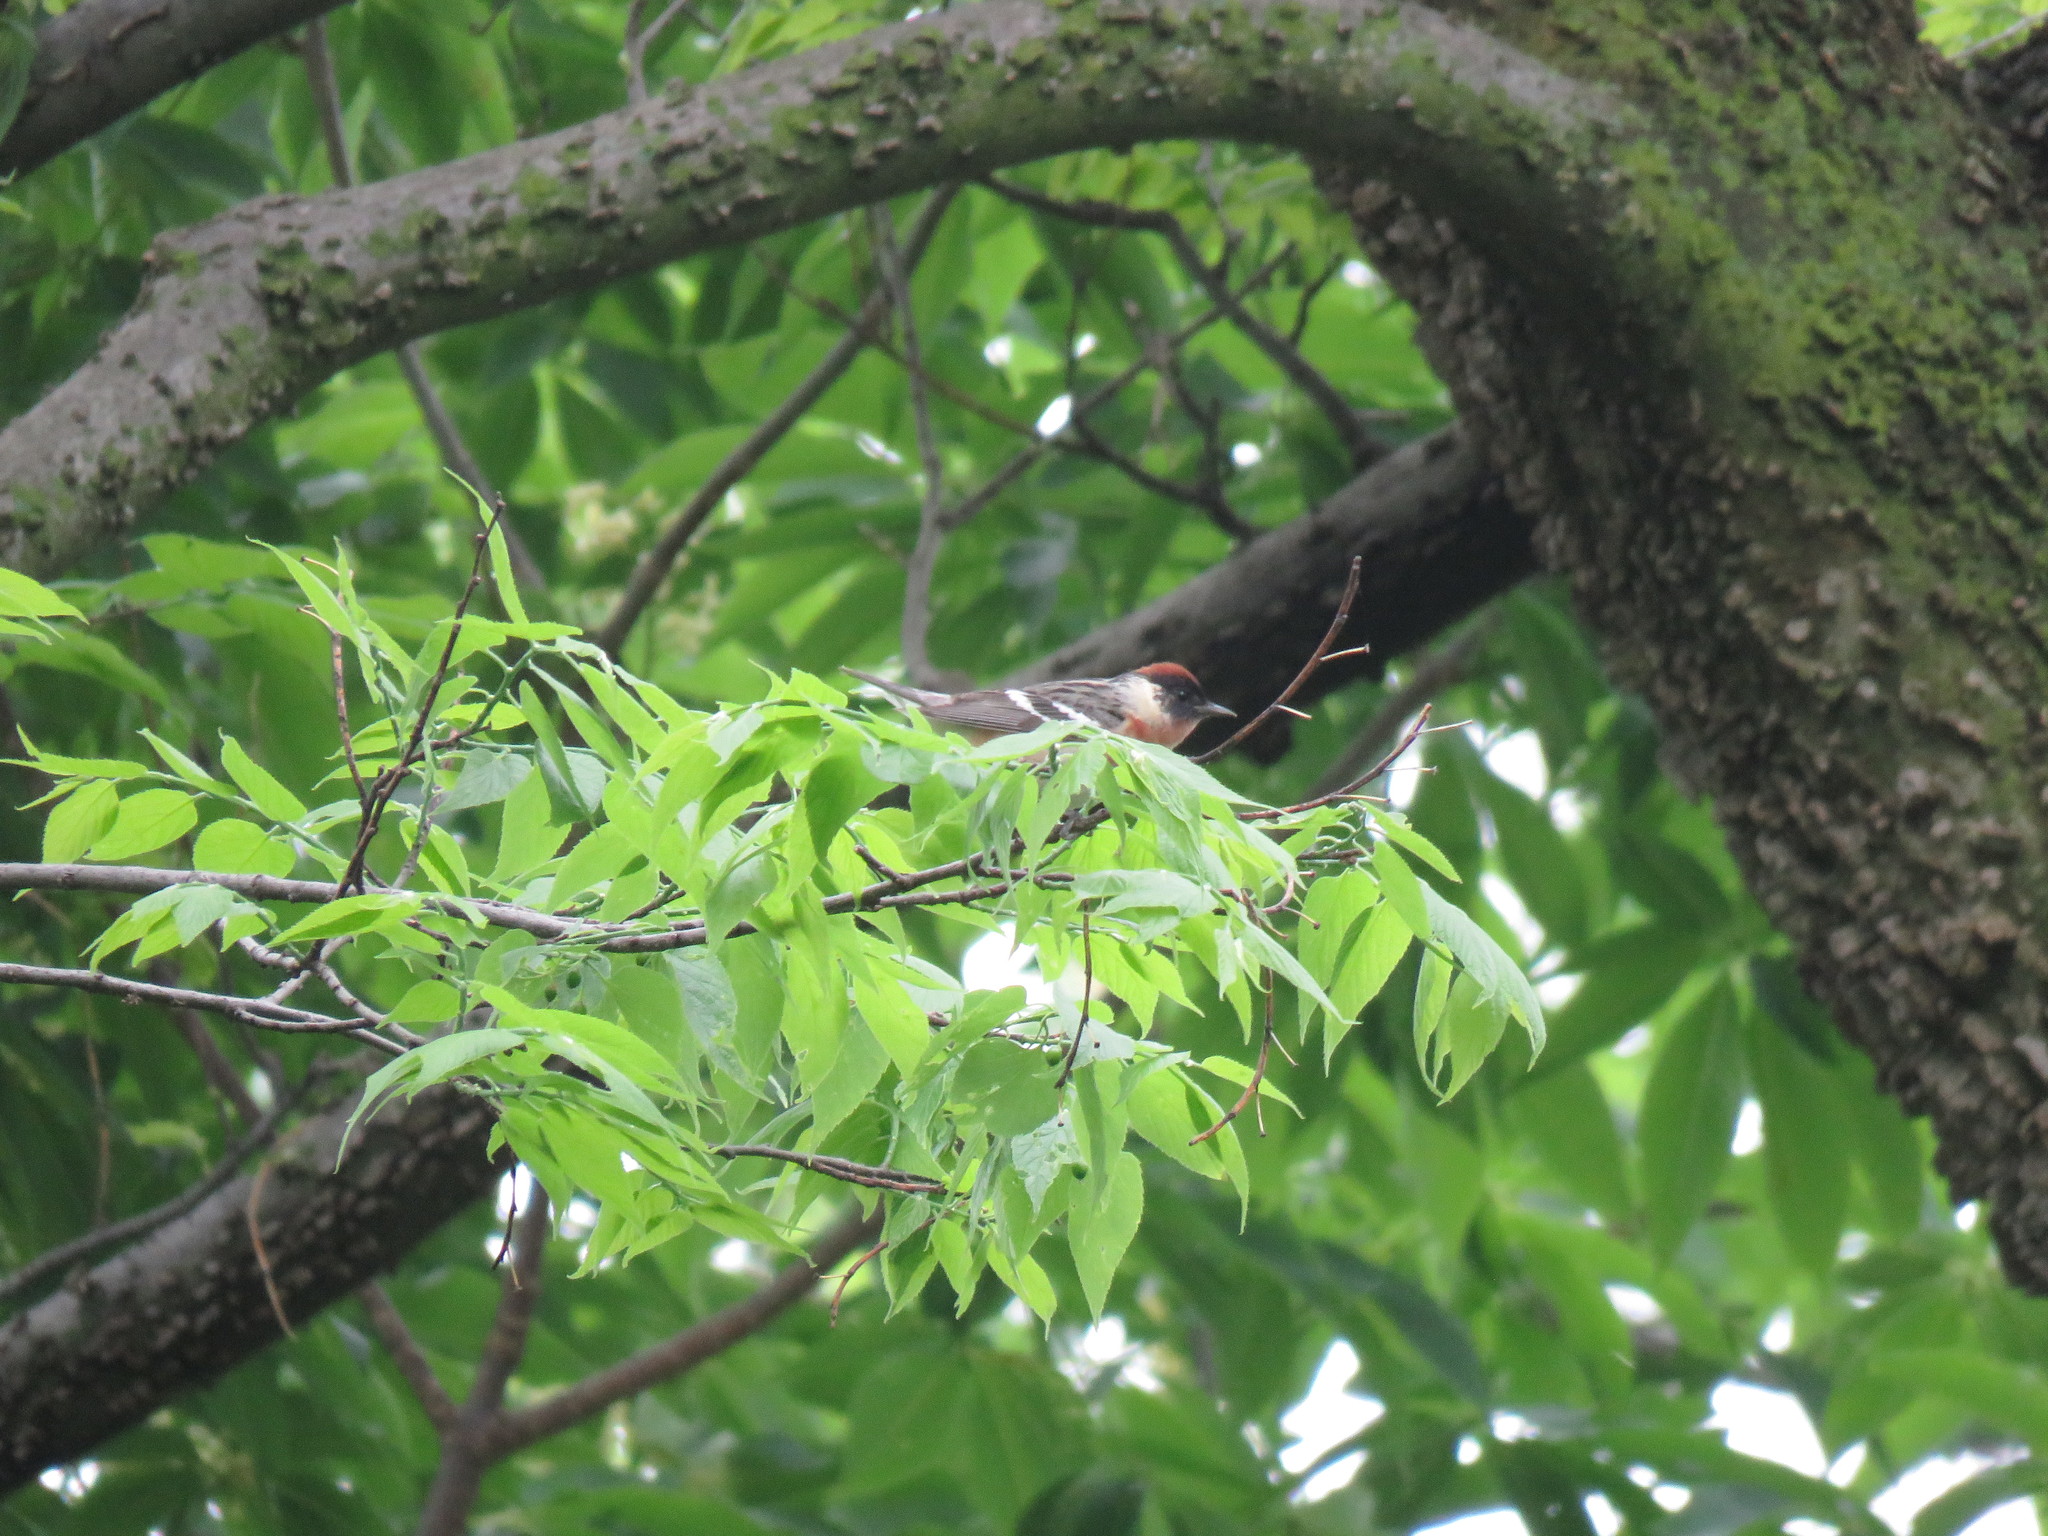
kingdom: Animalia
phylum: Chordata
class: Aves
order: Passeriformes
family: Parulidae
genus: Setophaga
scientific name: Setophaga castanea
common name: Bay-breasted warbler
